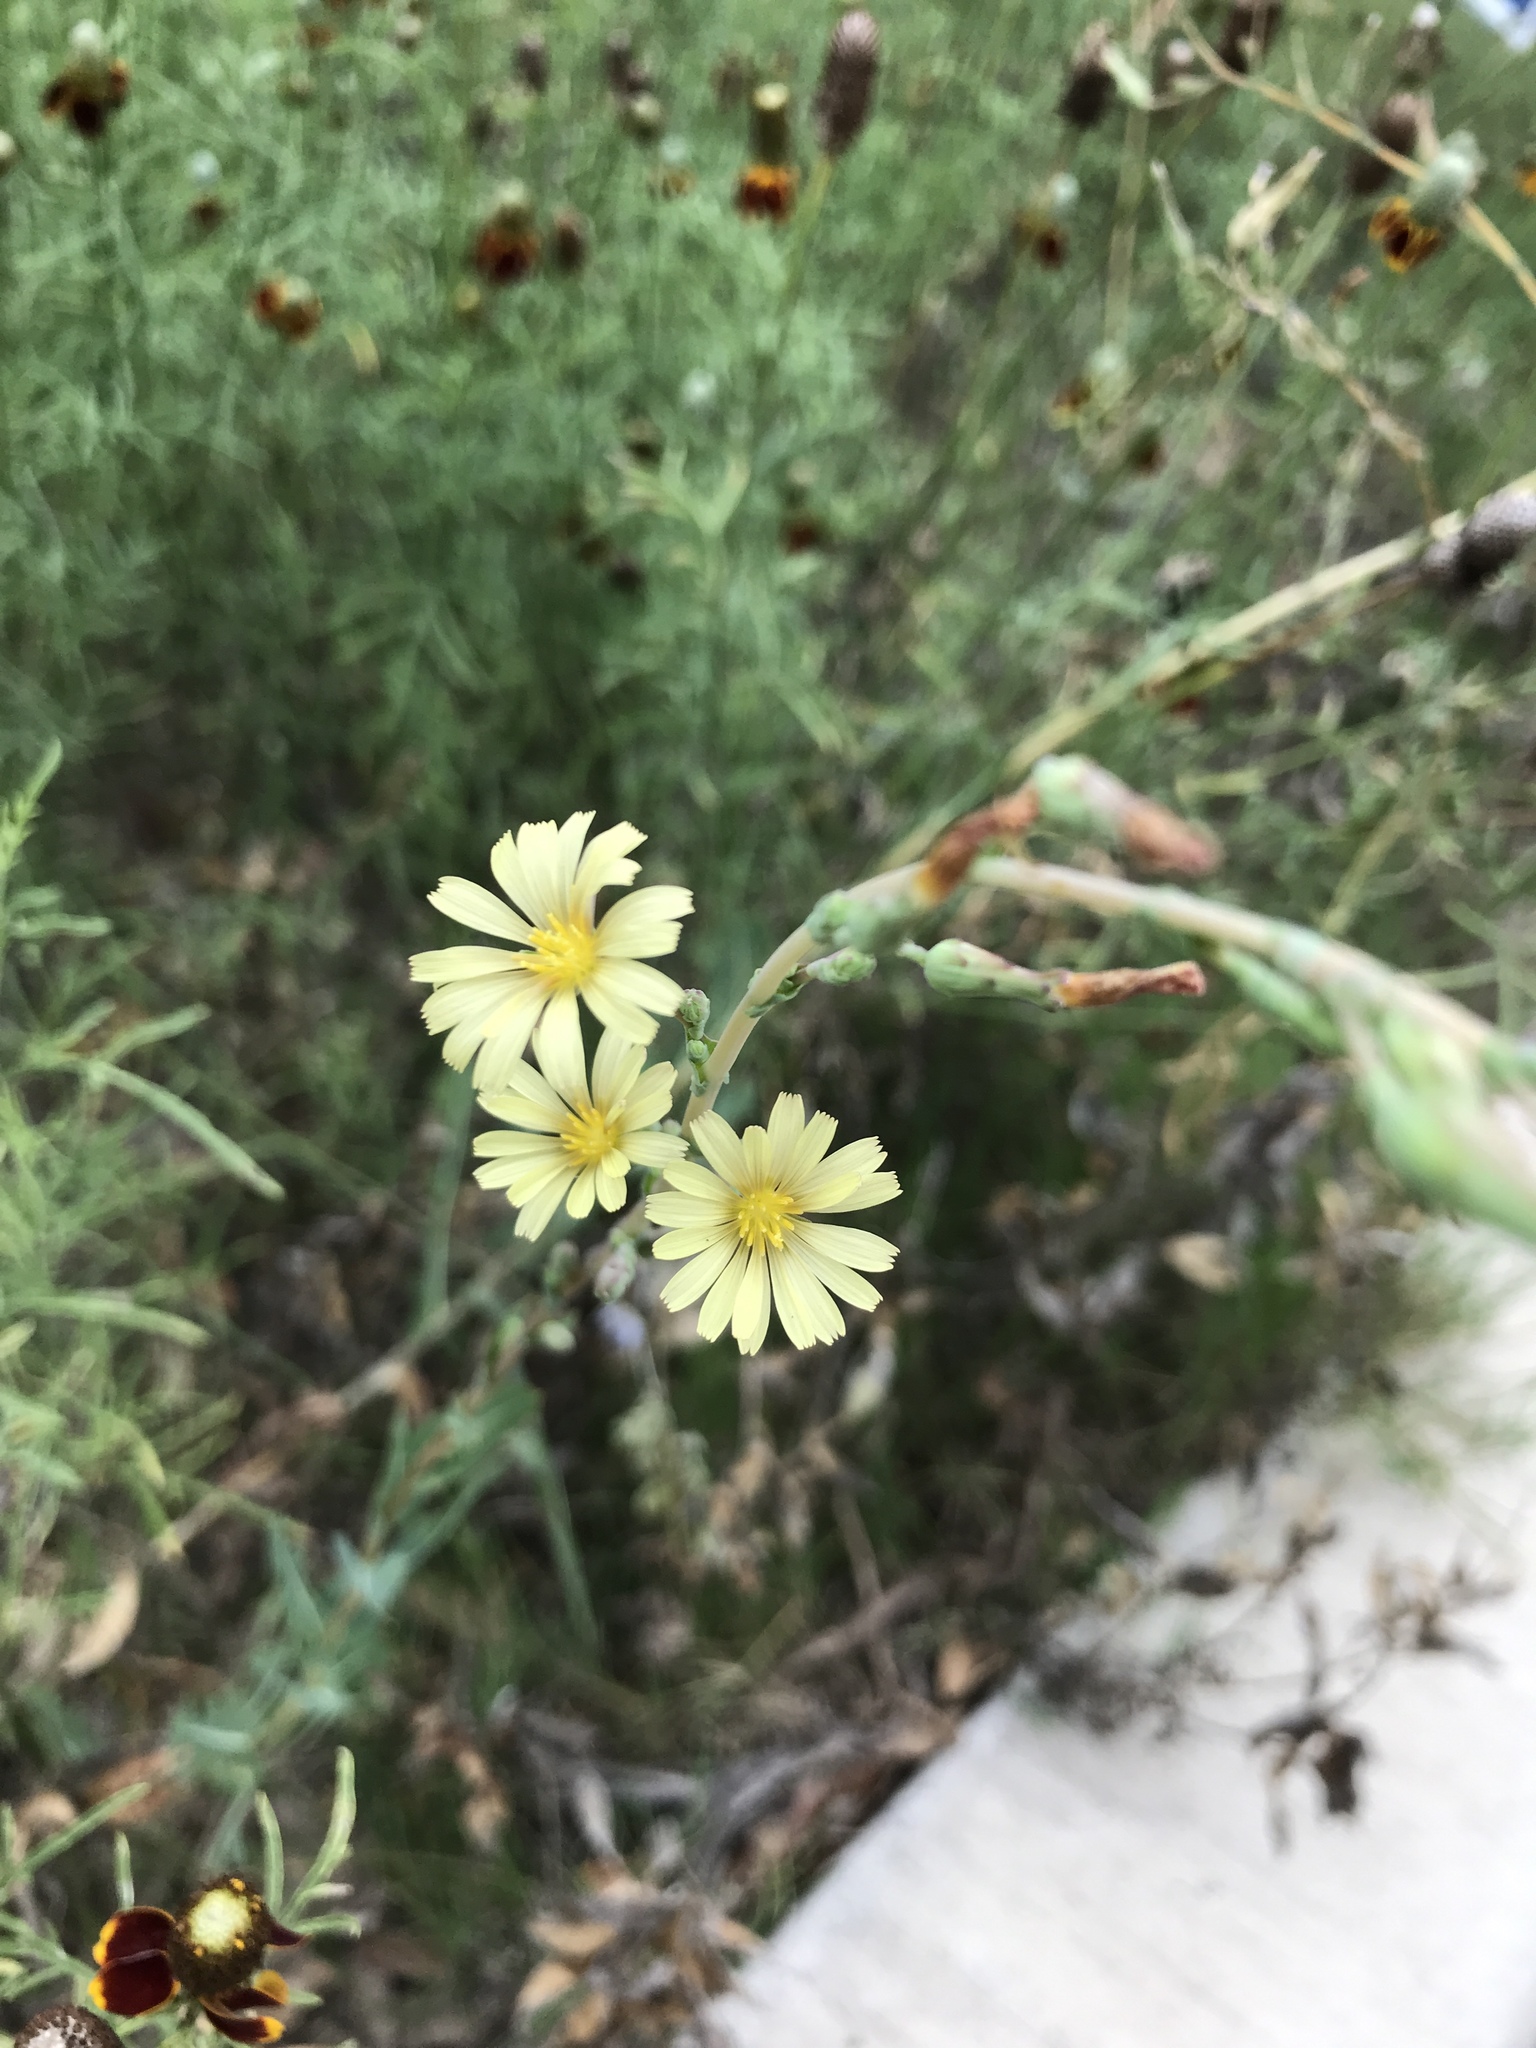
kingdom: Plantae
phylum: Tracheophyta
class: Magnoliopsida
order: Asterales
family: Asteraceae
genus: Lactuca
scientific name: Lactuca serriola
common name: Prickly lettuce
